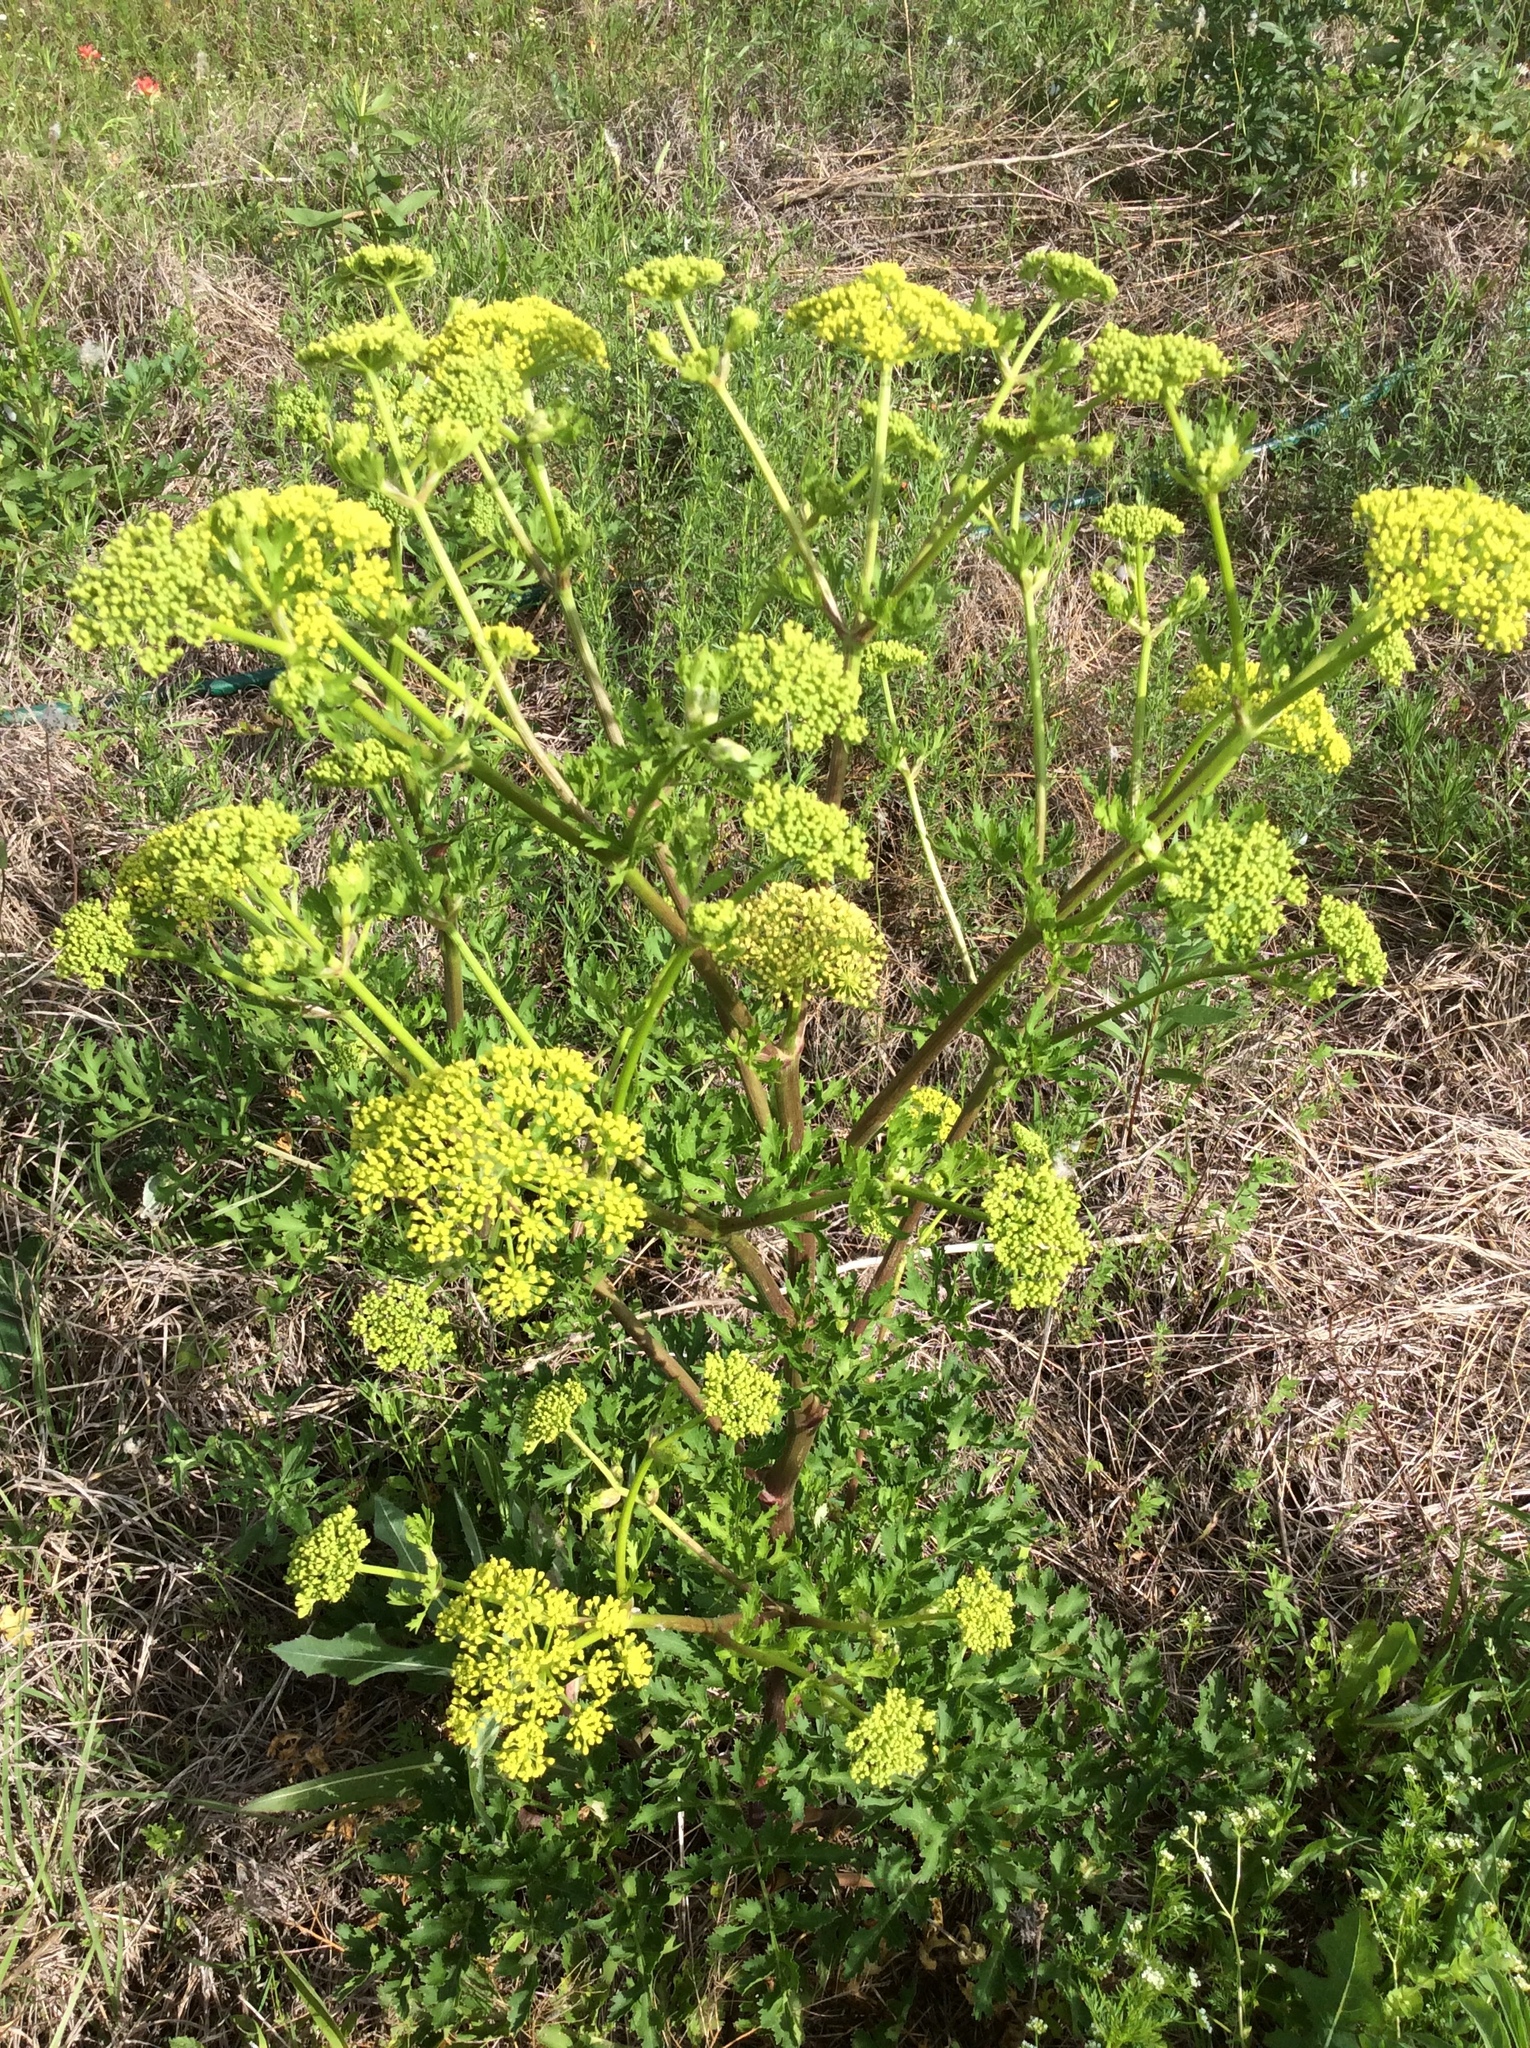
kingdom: Plantae
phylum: Tracheophyta
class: Magnoliopsida
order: Apiales
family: Apiaceae
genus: Polytaenia
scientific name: Polytaenia texana
